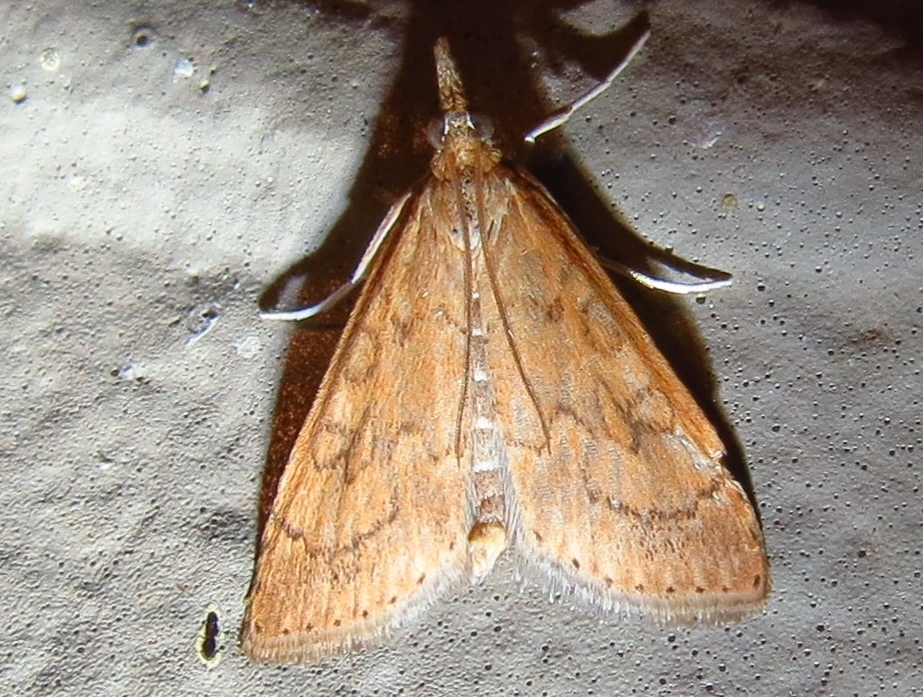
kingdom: Animalia
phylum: Arthropoda
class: Insecta
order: Lepidoptera
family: Crambidae
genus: Udea
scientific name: Udea rubigalis
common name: Celery leaftier moth
